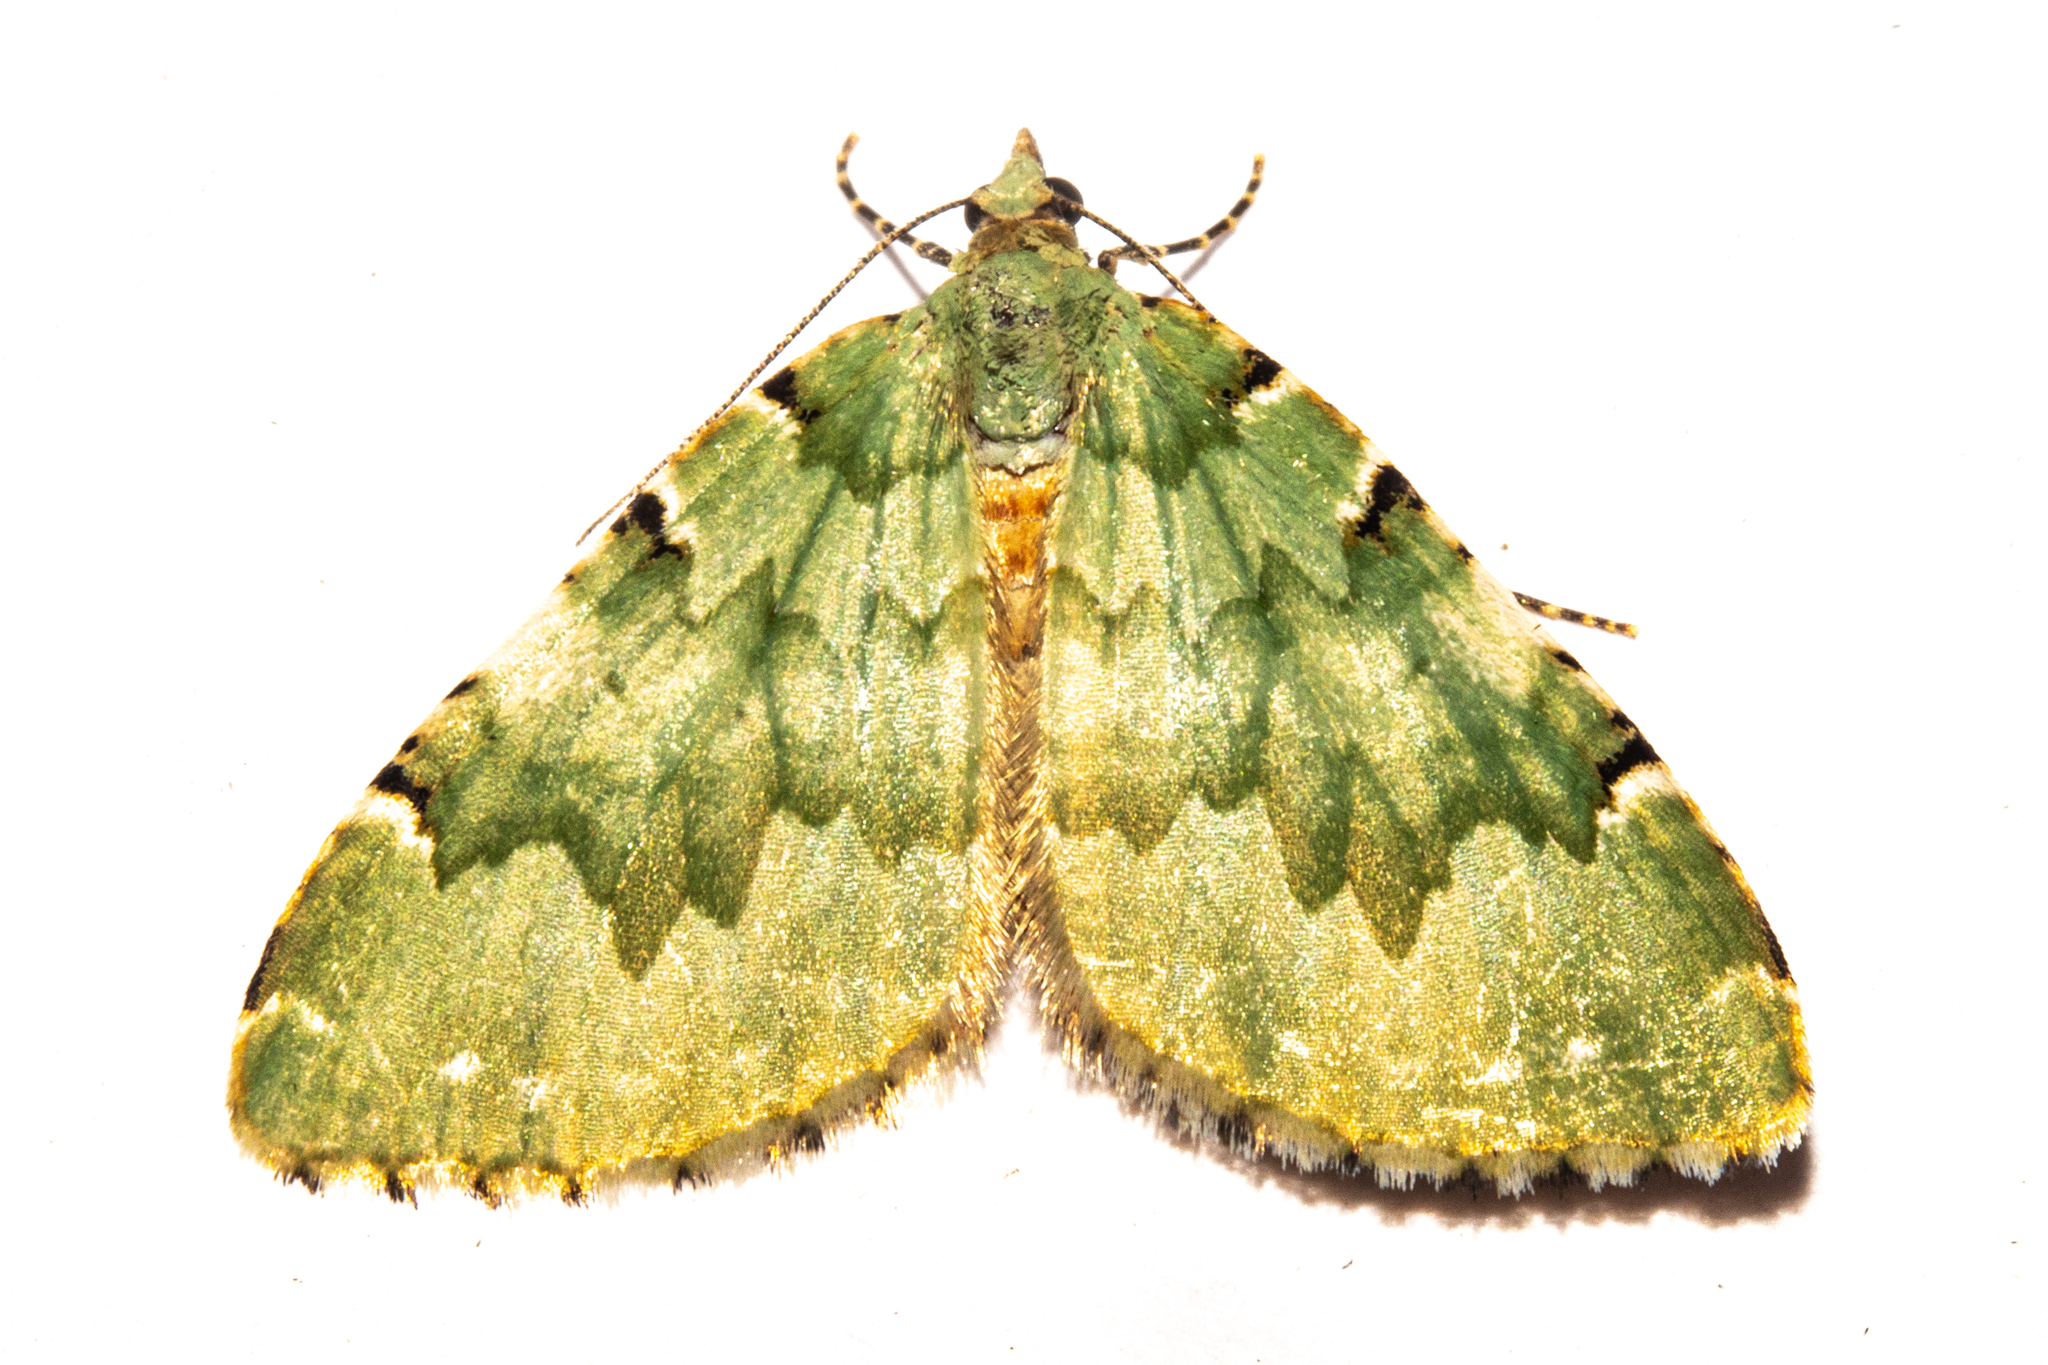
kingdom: Animalia
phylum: Arthropoda
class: Insecta
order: Lepidoptera
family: Geometridae
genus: Asaphodes
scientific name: Asaphodes adonis
